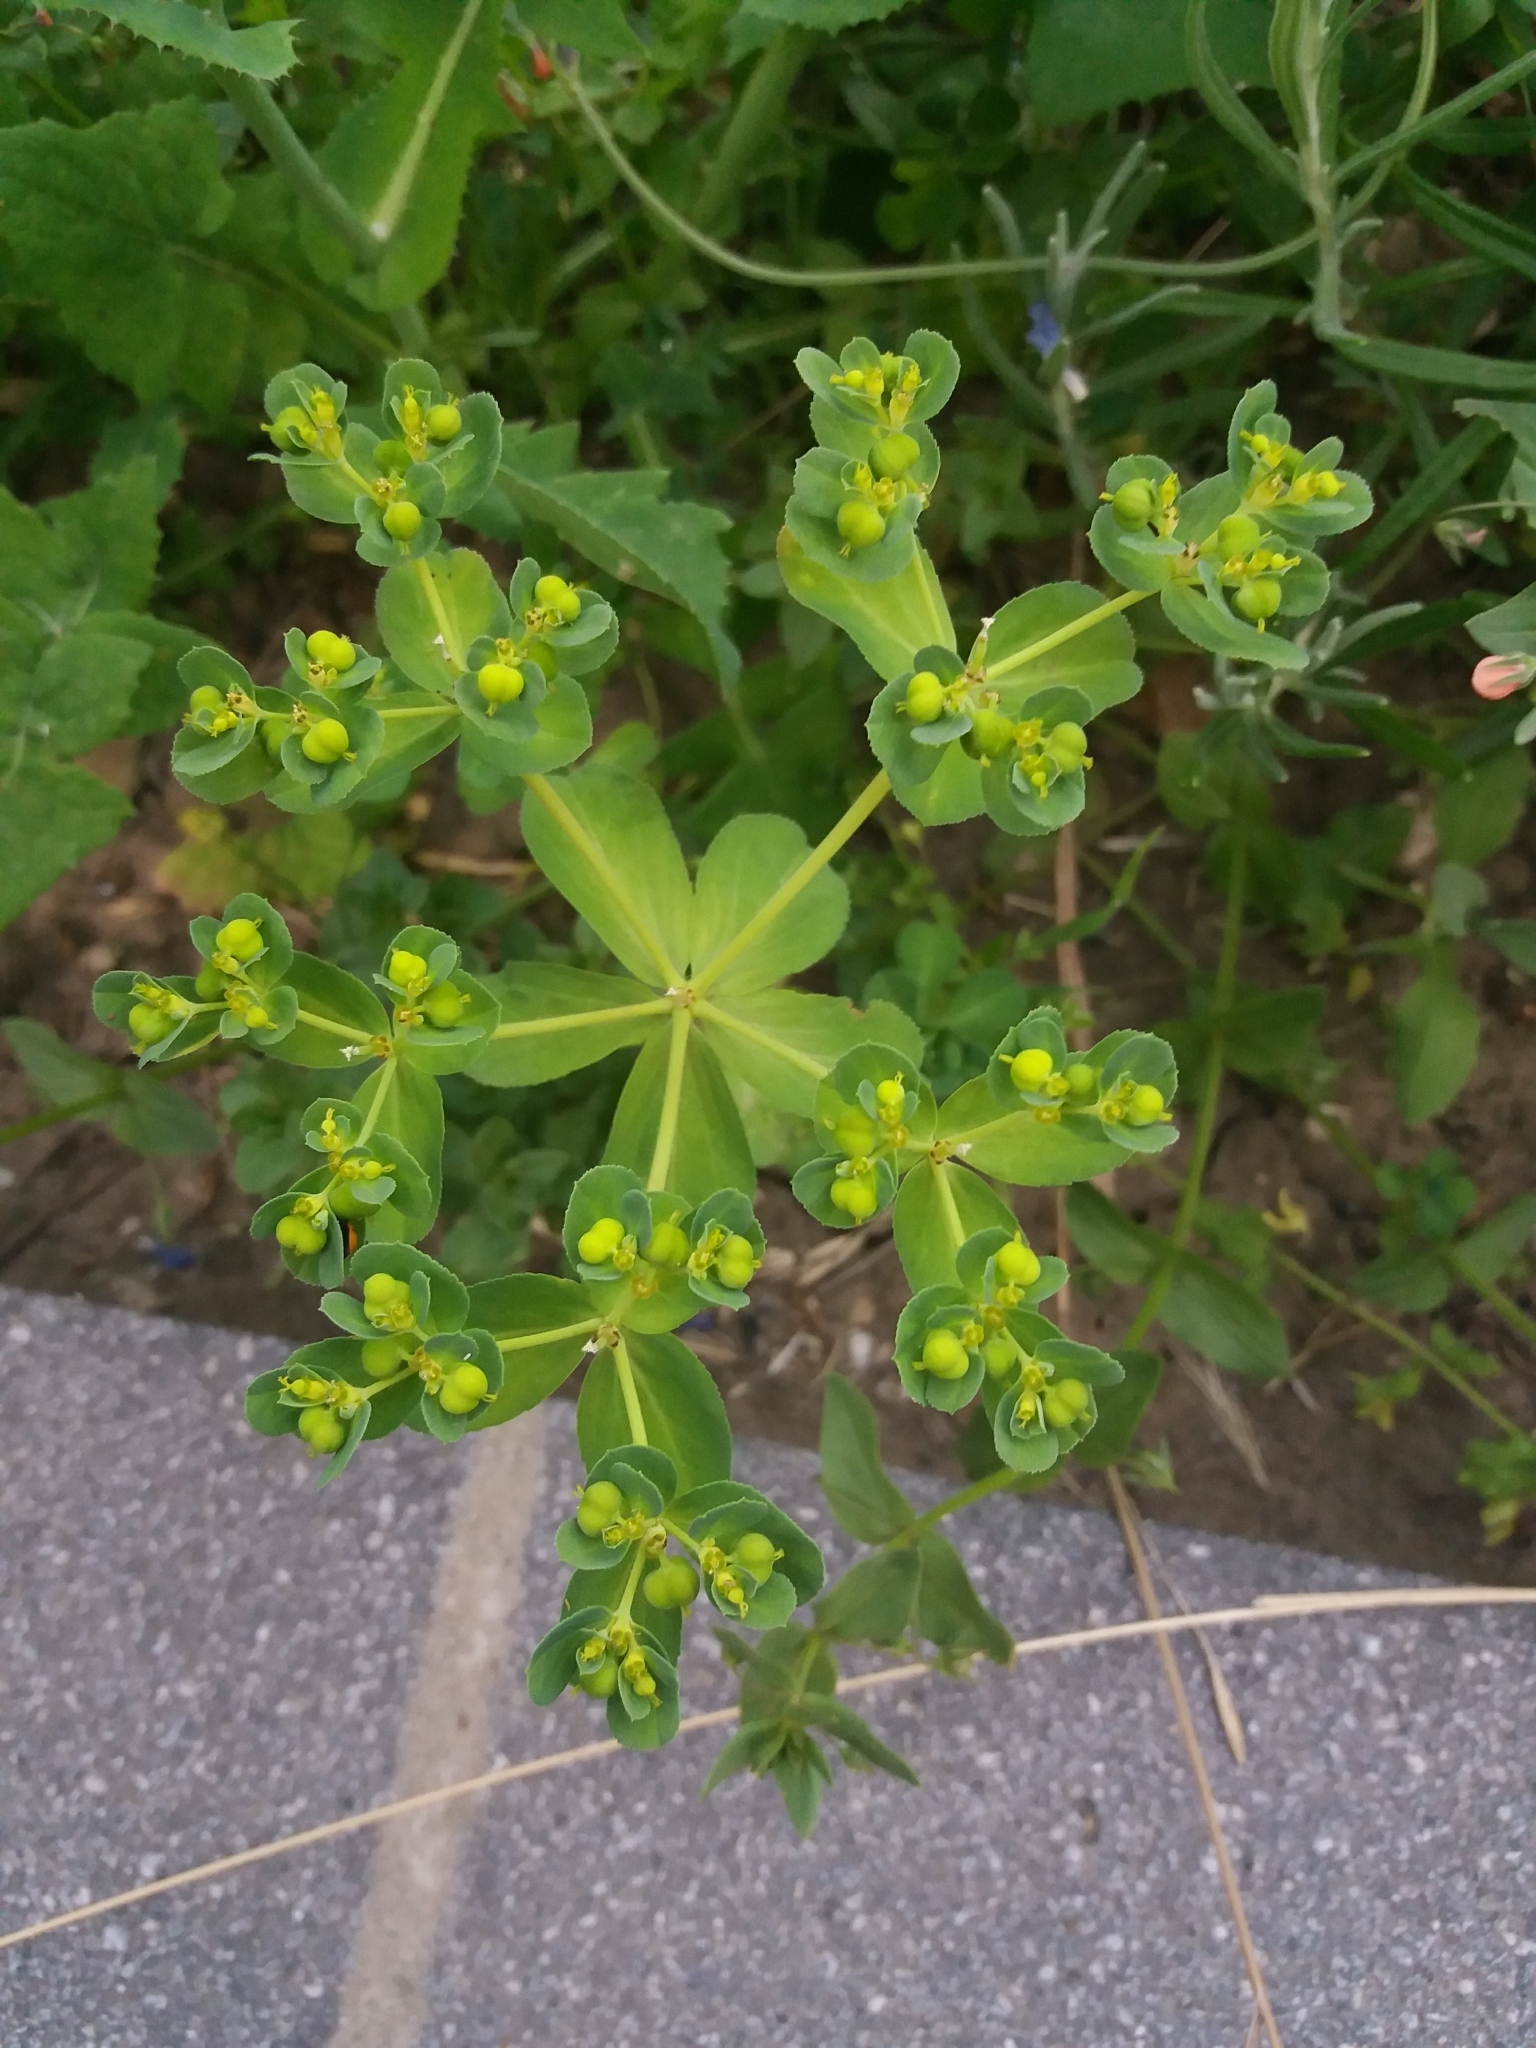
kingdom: Plantae
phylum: Tracheophyta
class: Magnoliopsida
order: Malpighiales
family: Euphorbiaceae
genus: Euphorbia
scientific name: Euphorbia helioscopia
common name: Sun spurge
